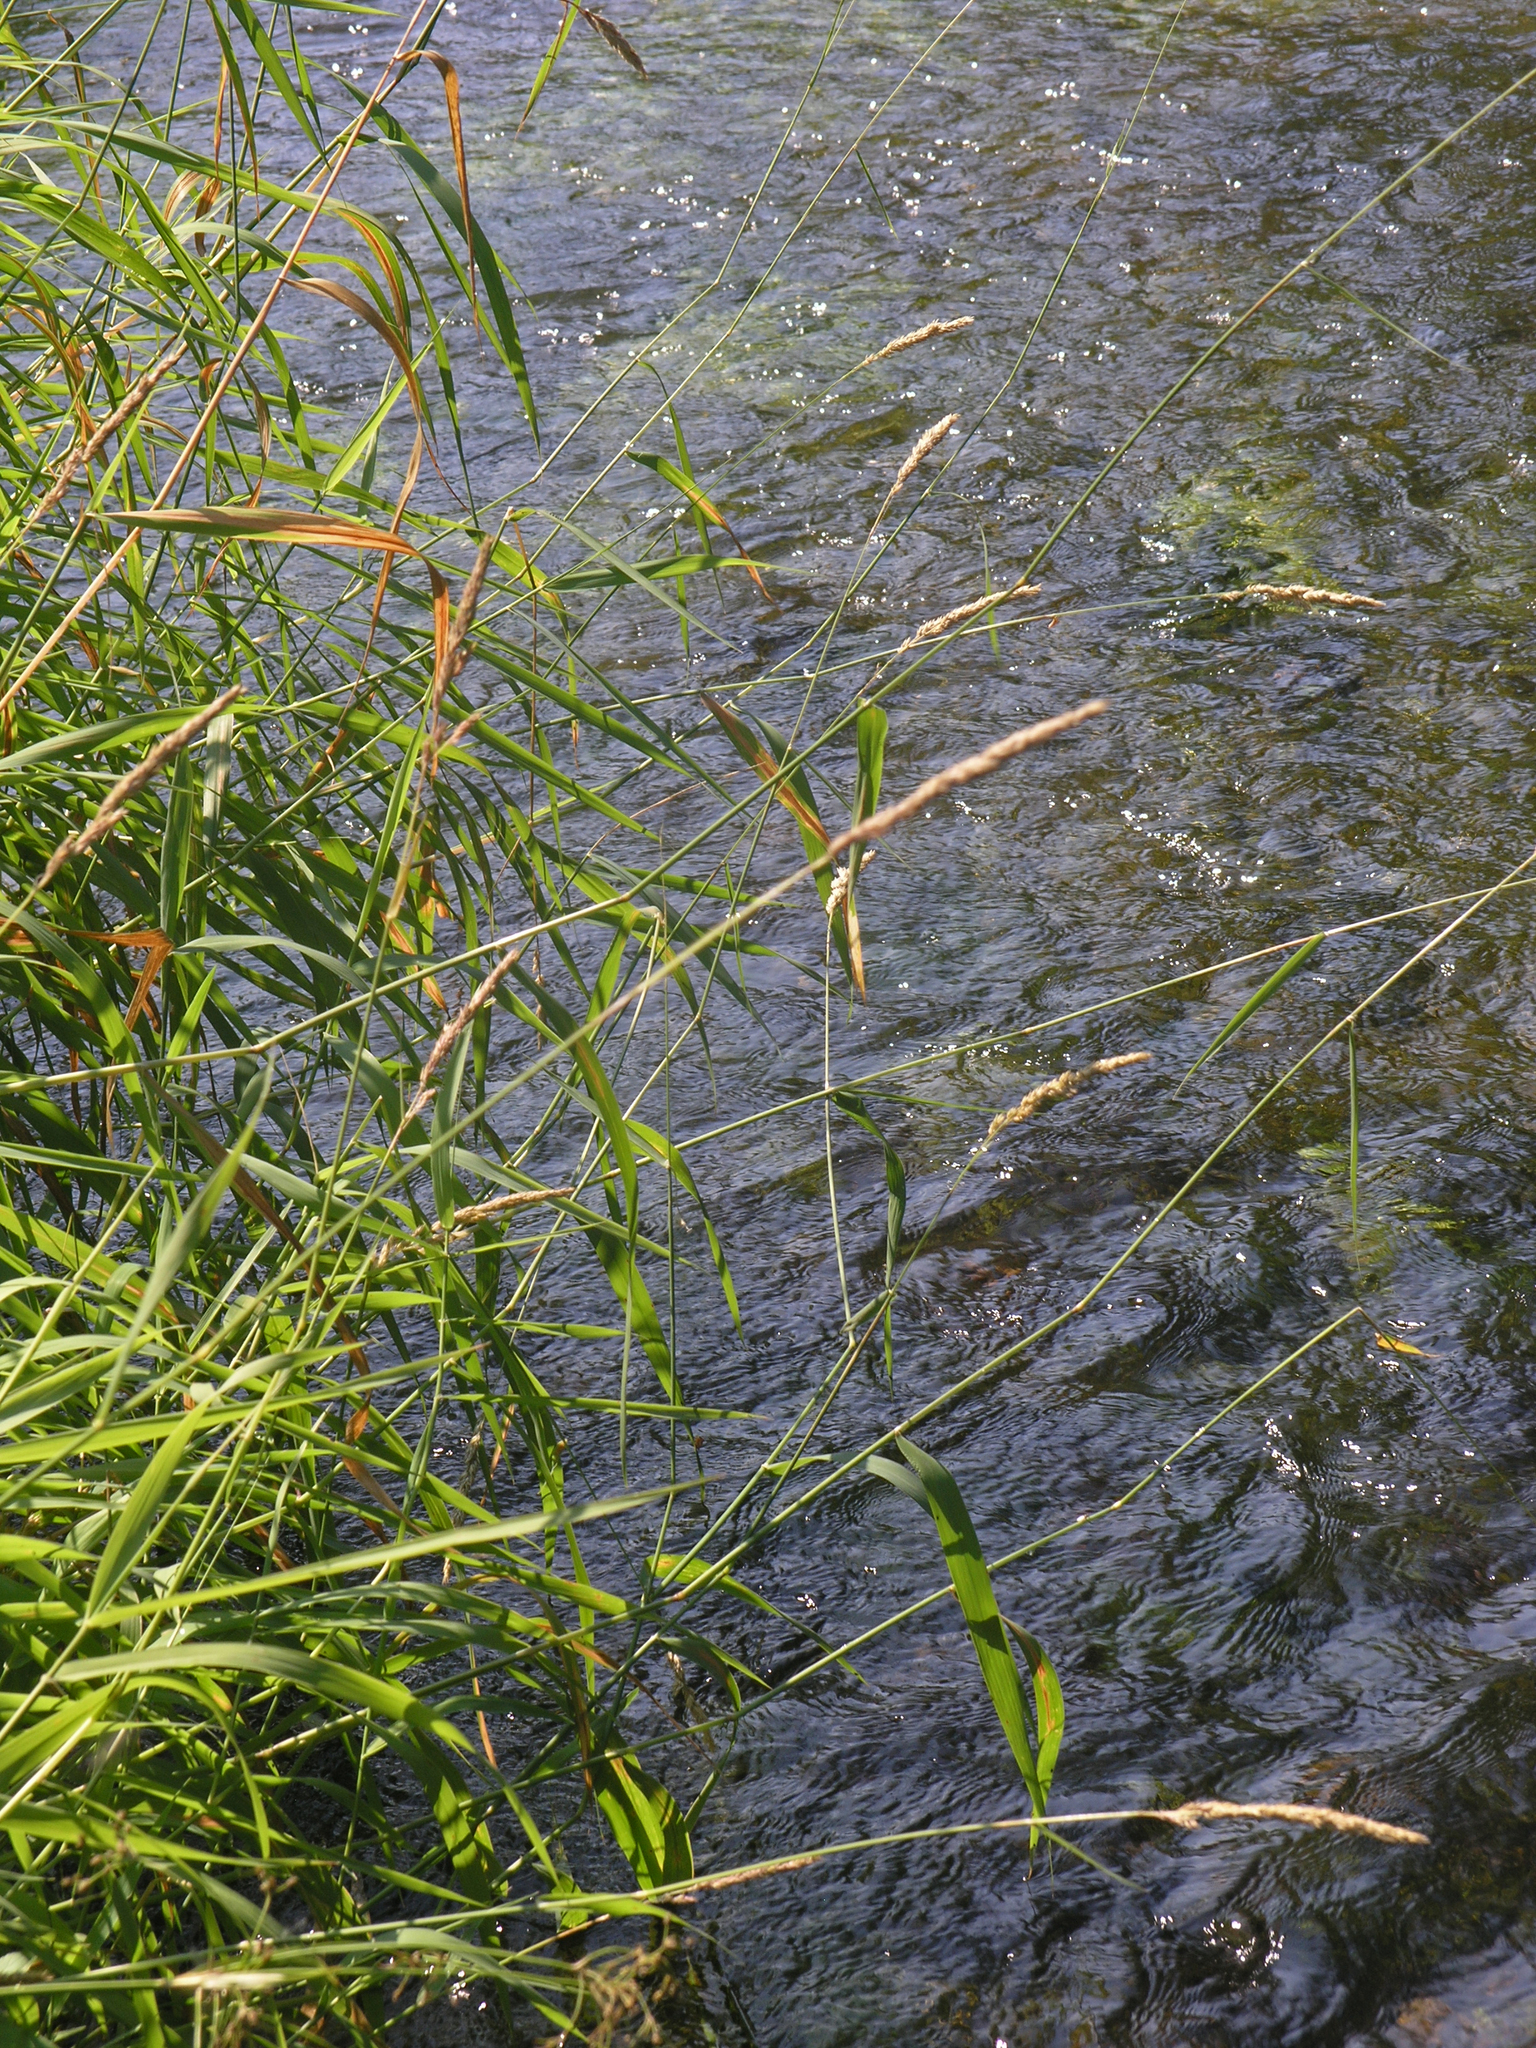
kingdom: Plantae
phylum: Tracheophyta
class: Liliopsida
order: Poales
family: Poaceae
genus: Phalaris
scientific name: Phalaris arundinacea
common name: Reed canary-grass
